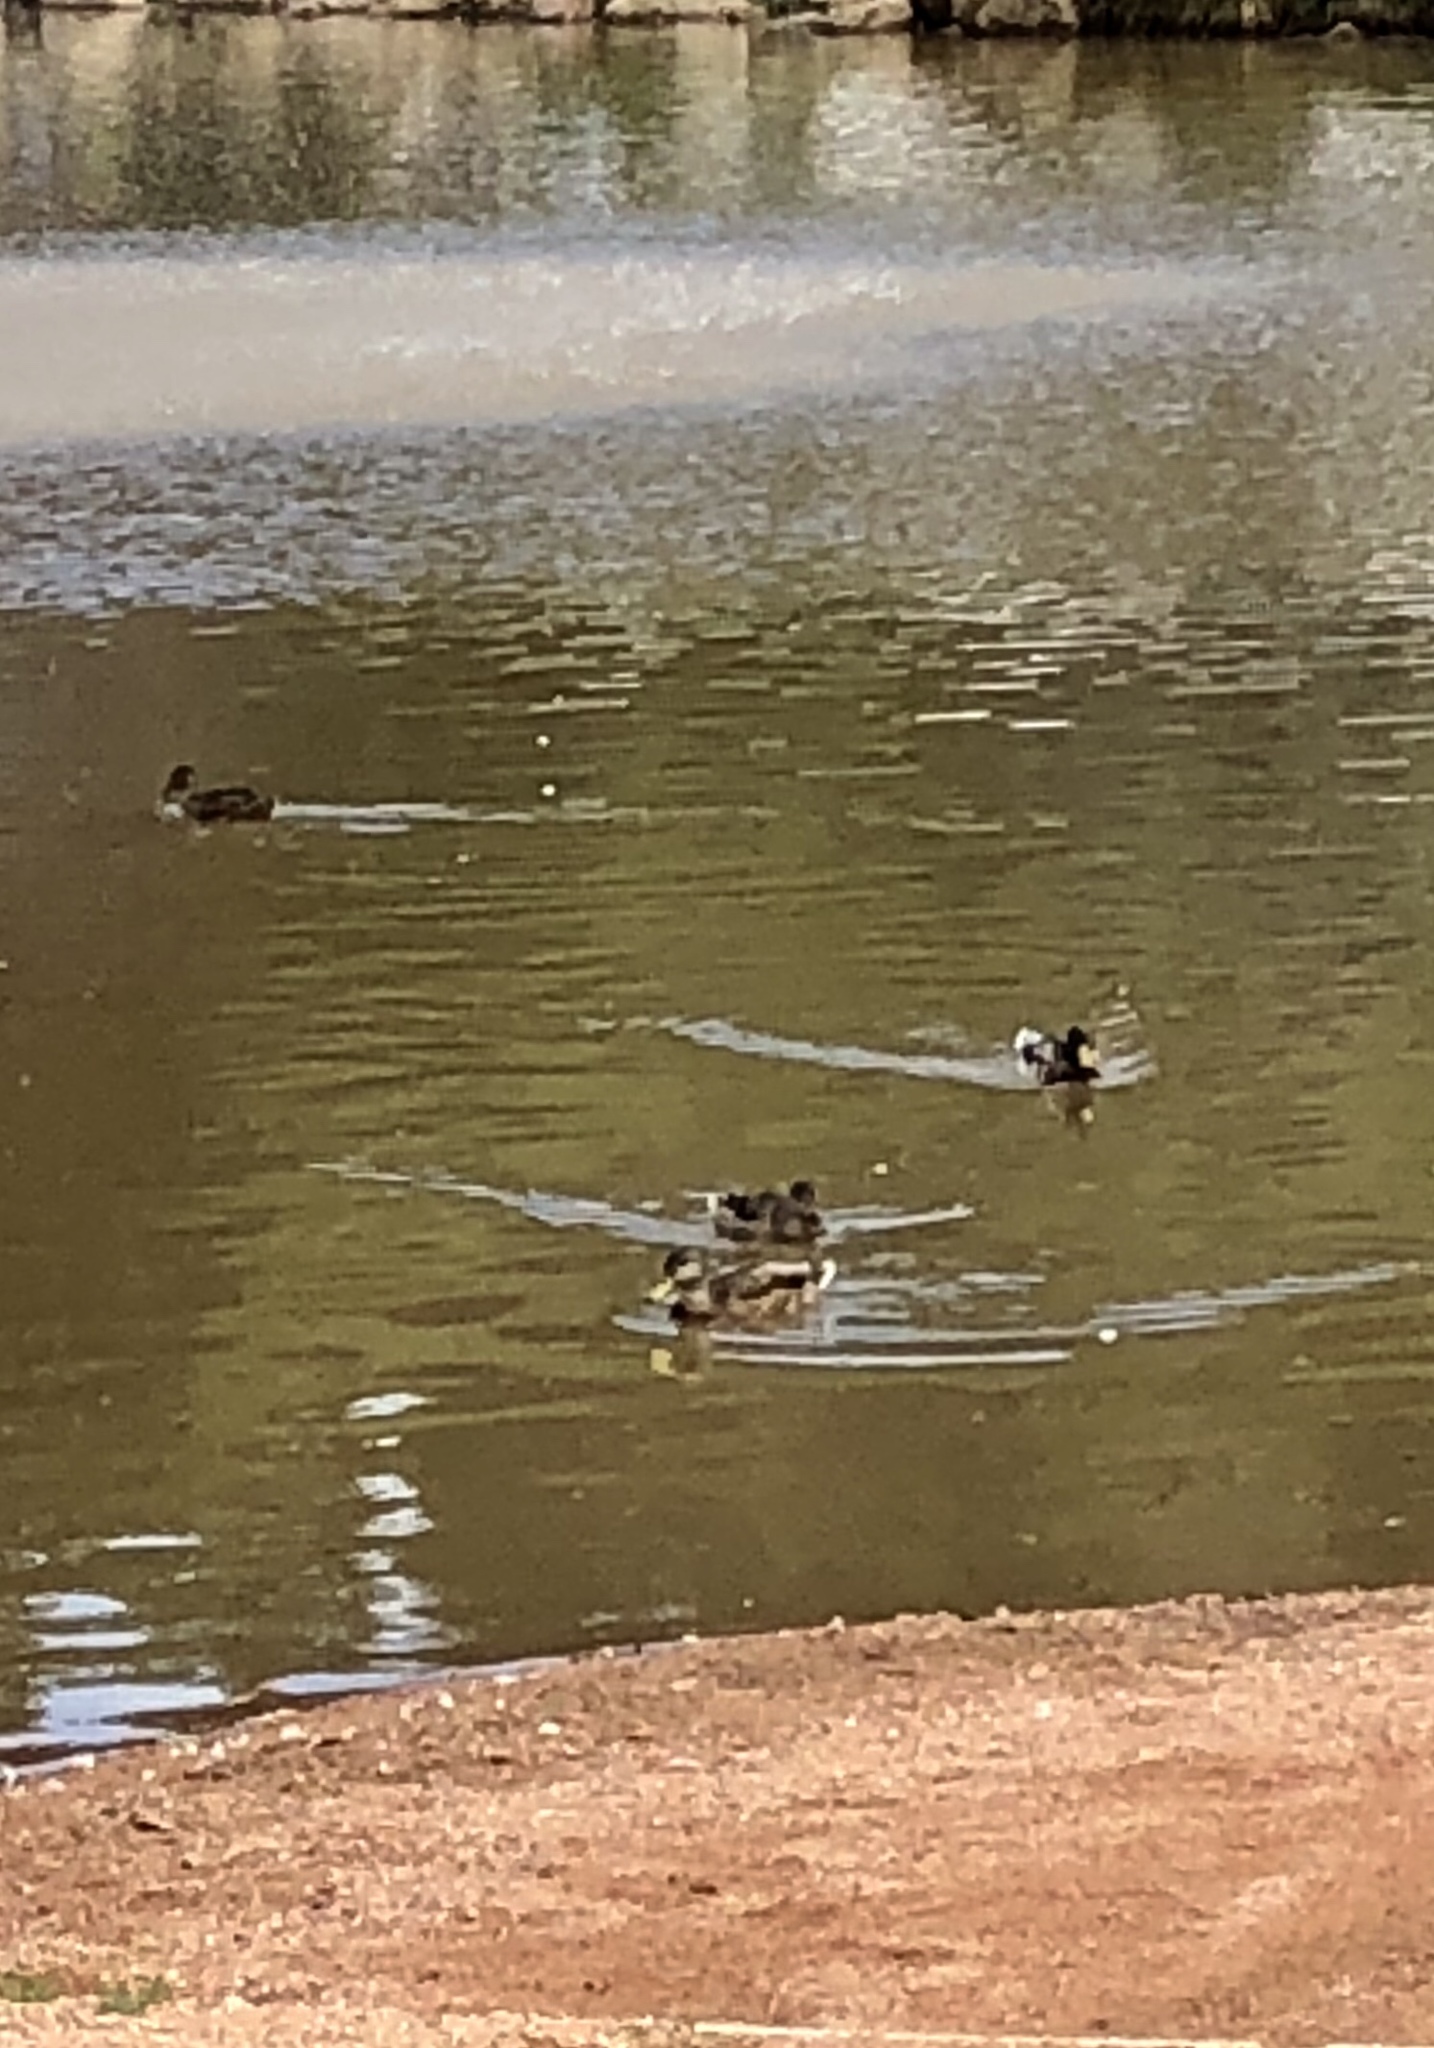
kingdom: Animalia
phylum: Chordata
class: Aves
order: Anseriformes
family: Anatidae
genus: Anas
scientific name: Anas platyrhynchos
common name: Mallard
